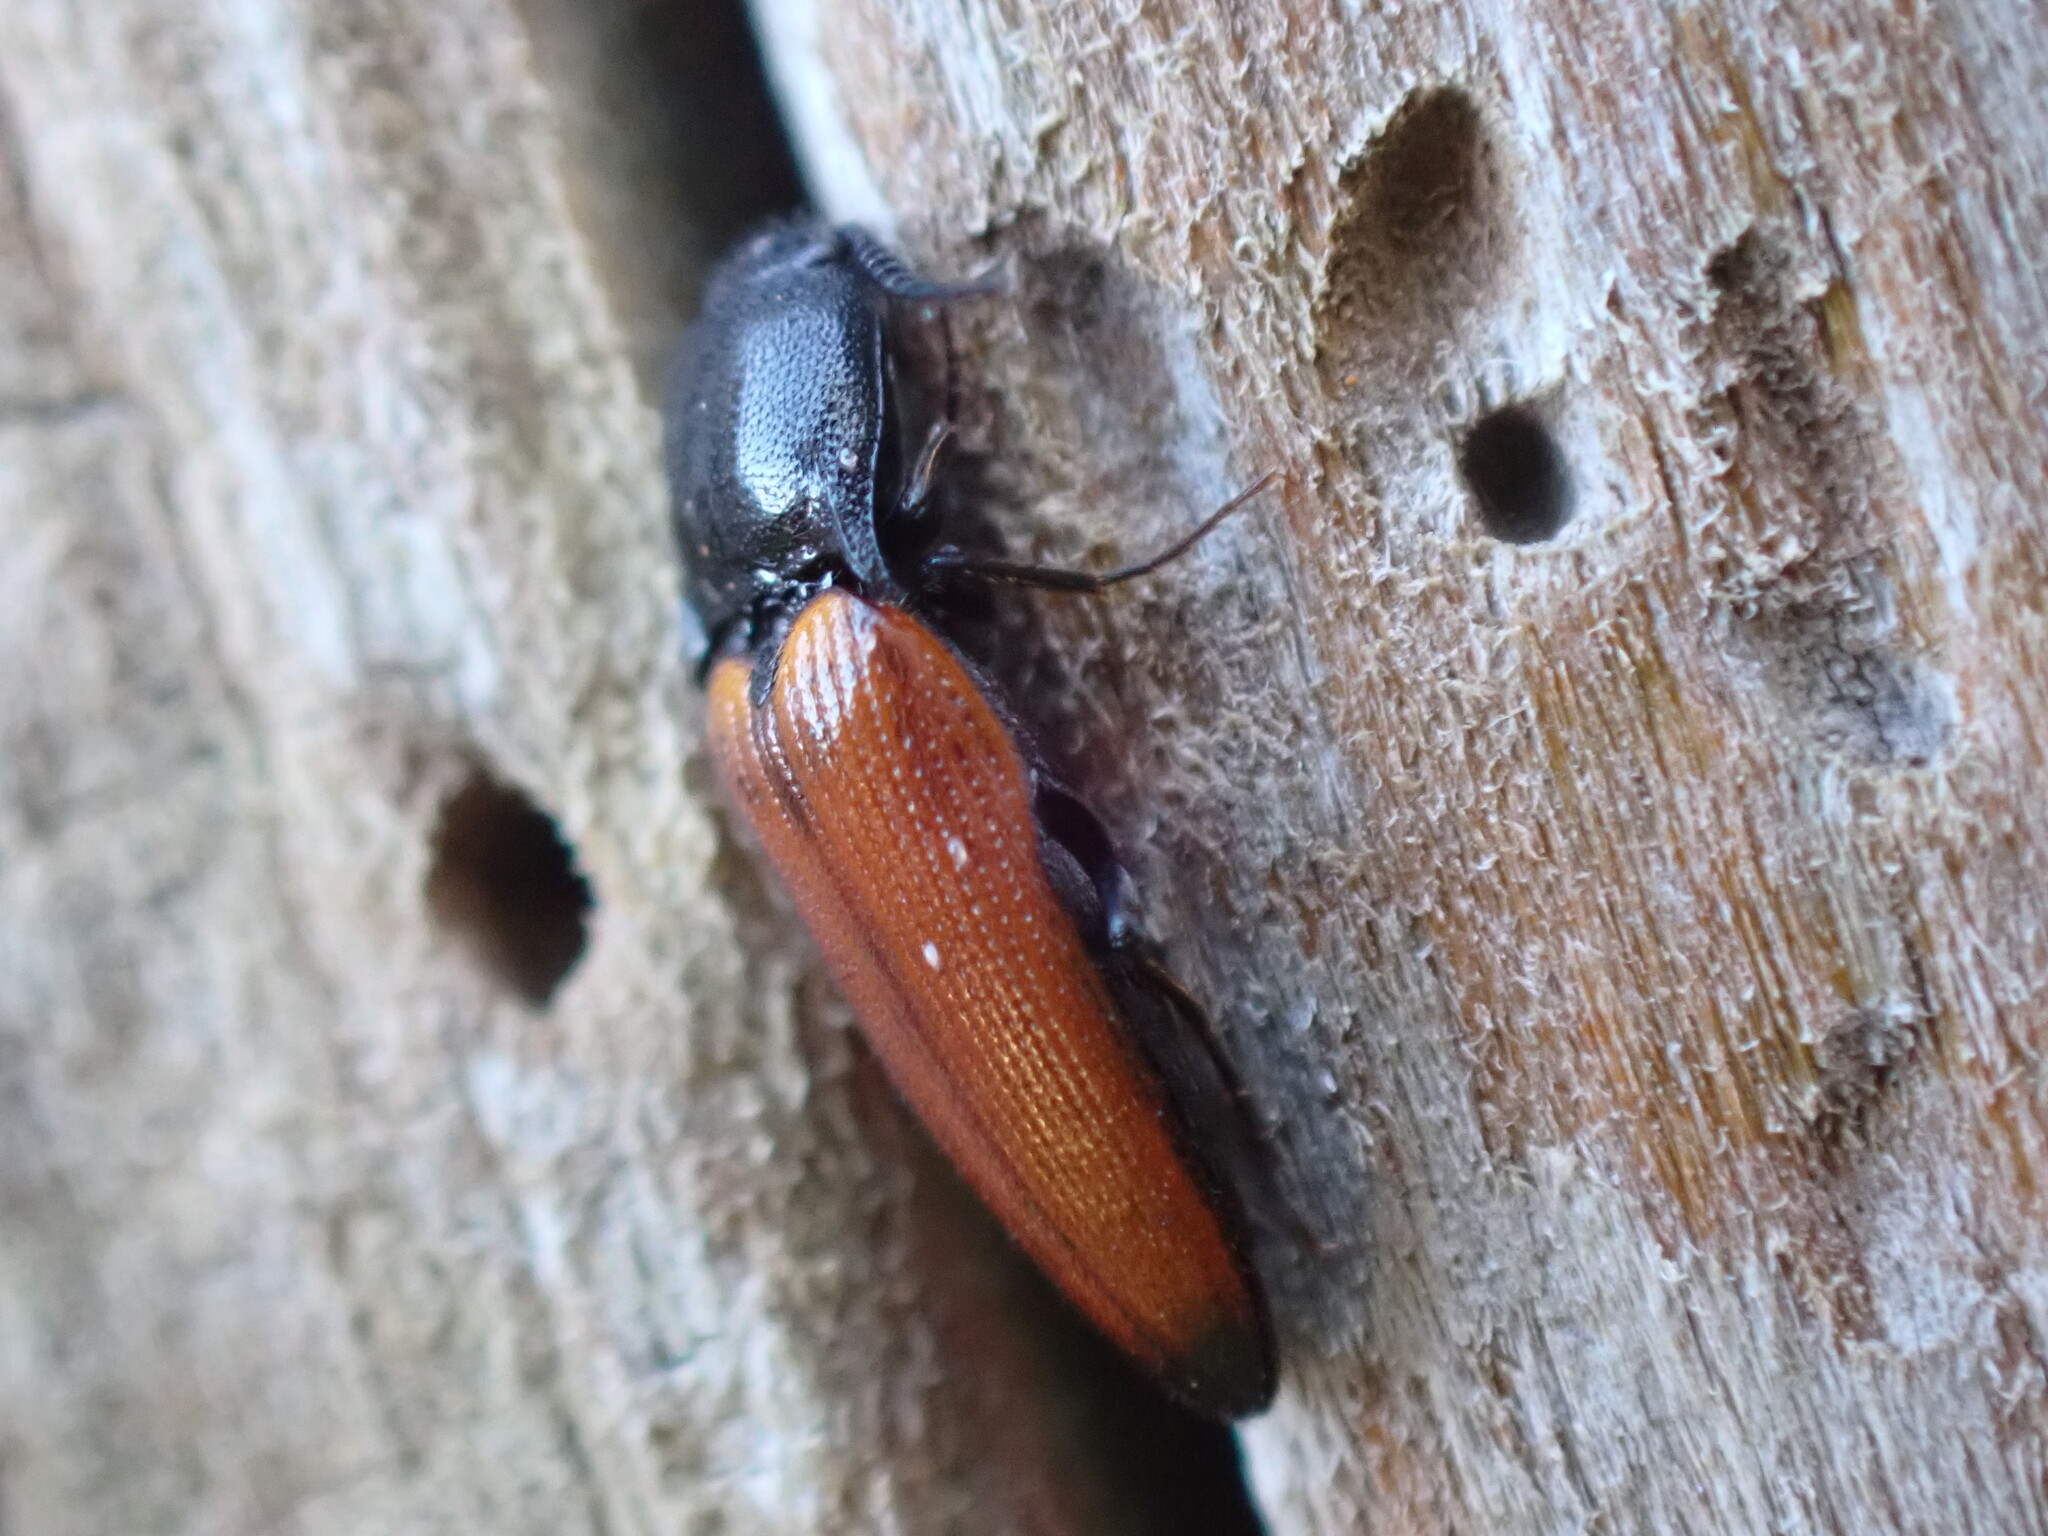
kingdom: Animalia
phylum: Arthropoda
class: Insecta
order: Coleoptera
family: Elateridae
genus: Ampedus
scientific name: Ampedus elongatulus
